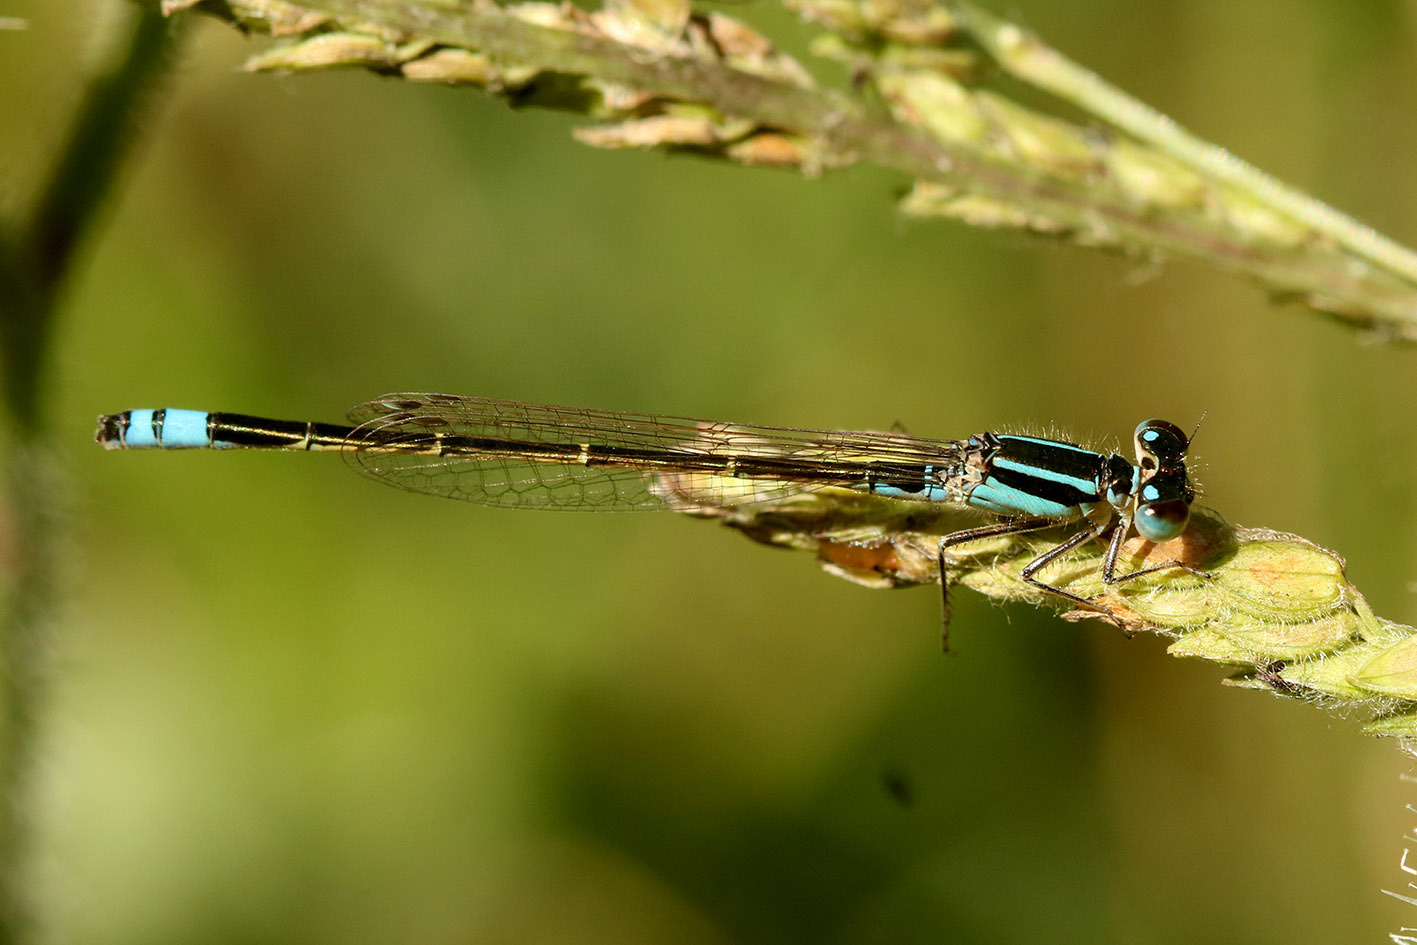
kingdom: Animalia
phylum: Arthropoda
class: Insecta
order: Odonata
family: Coenagrionidae
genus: Ischnura
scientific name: Ischnura fluviatilis
